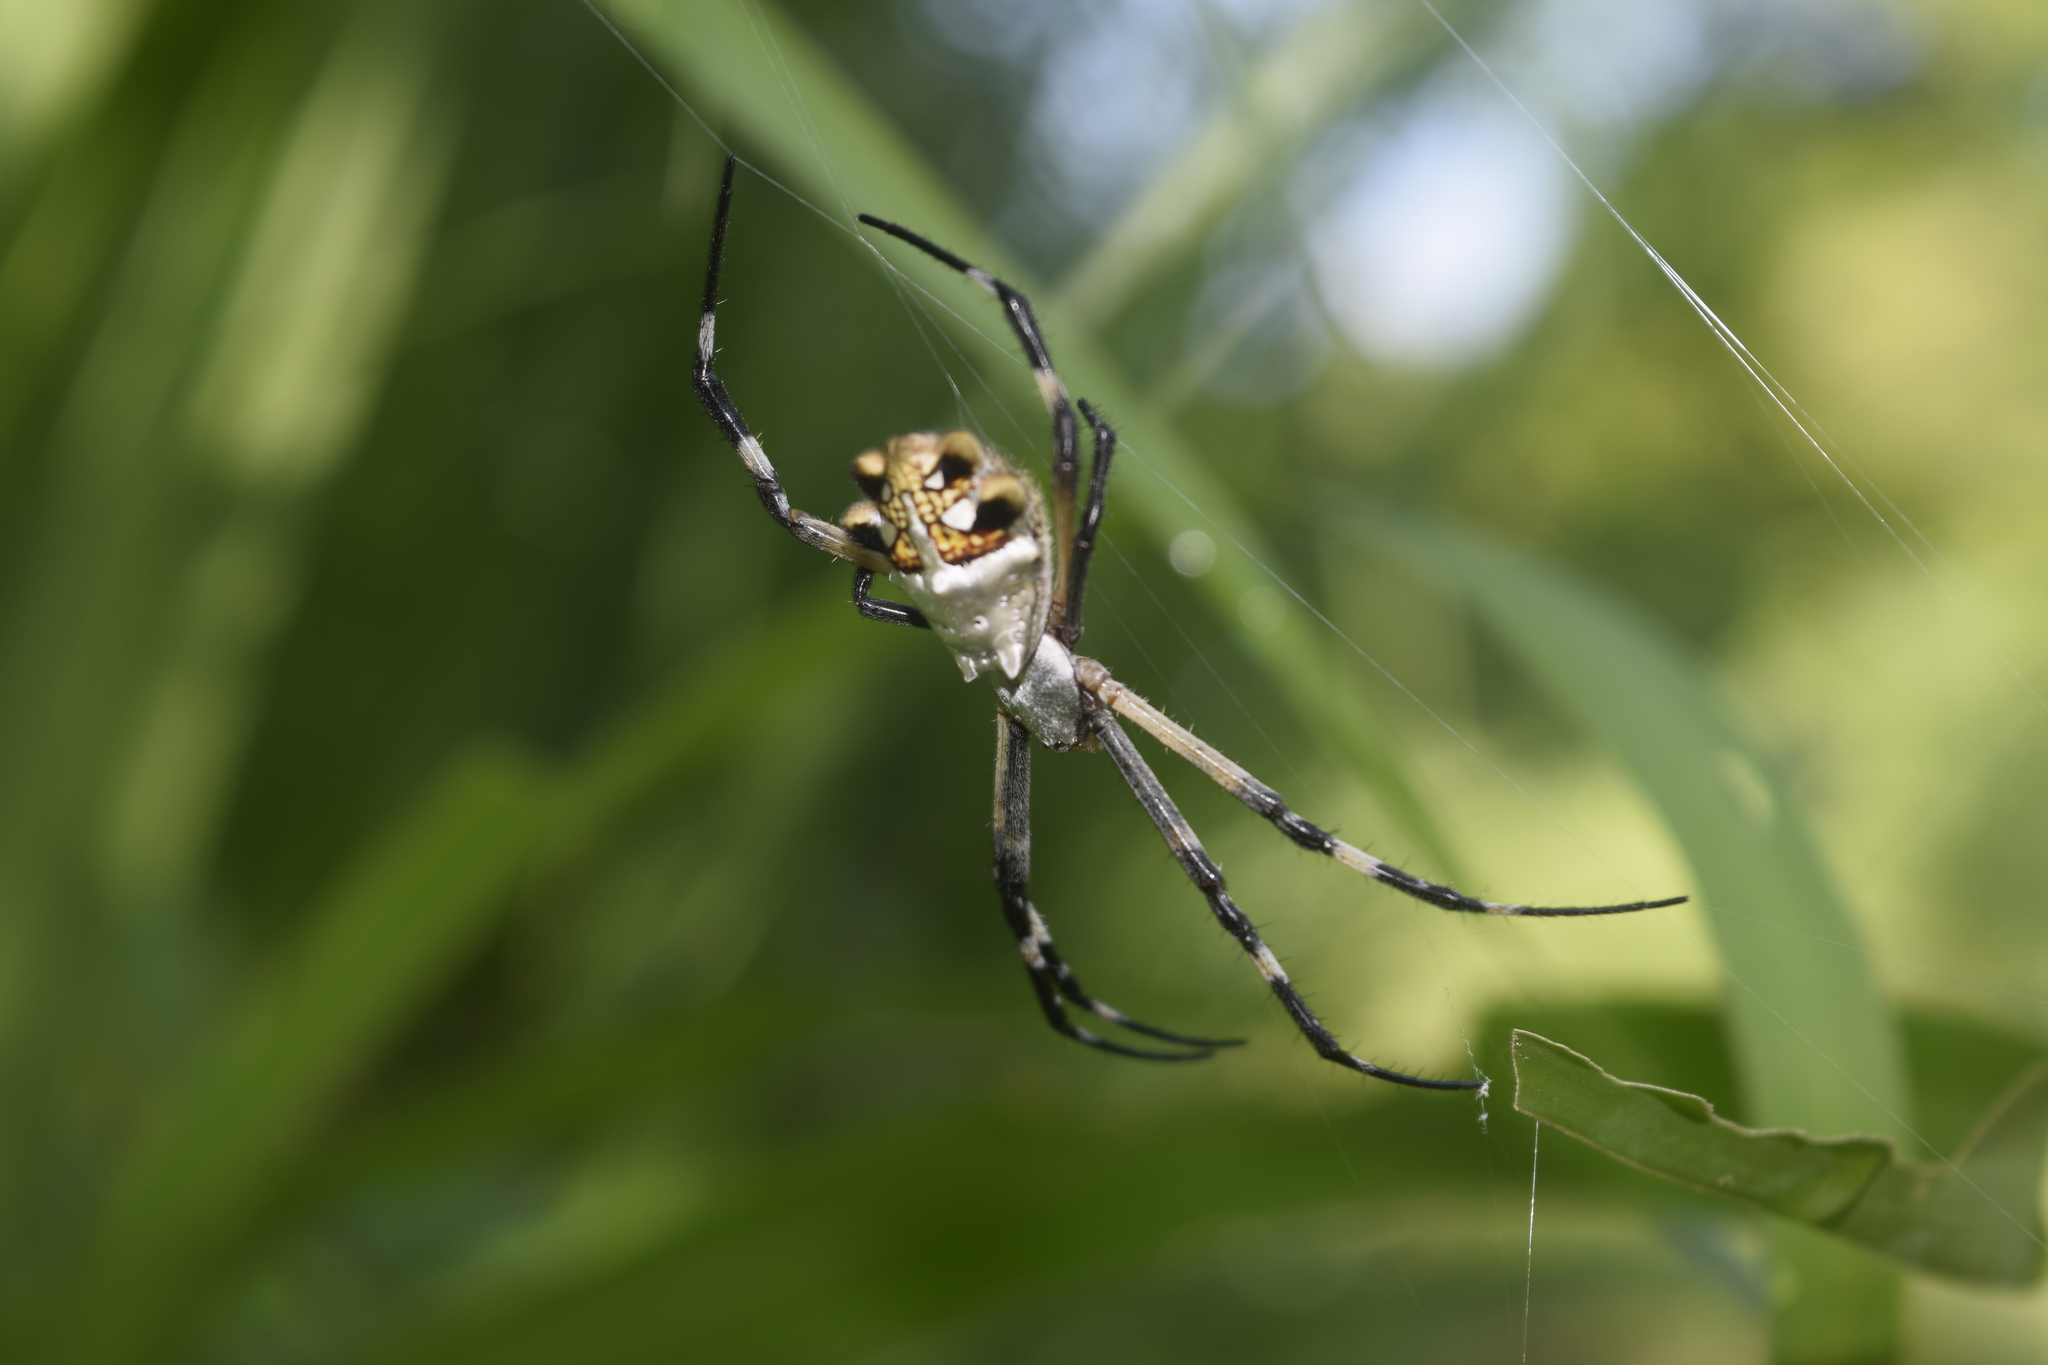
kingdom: Animalia
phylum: Arthropoda
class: Arachnida
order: Araneae
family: Araneidae
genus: Argiope
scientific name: Argiope argentata
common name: Orb weavers
